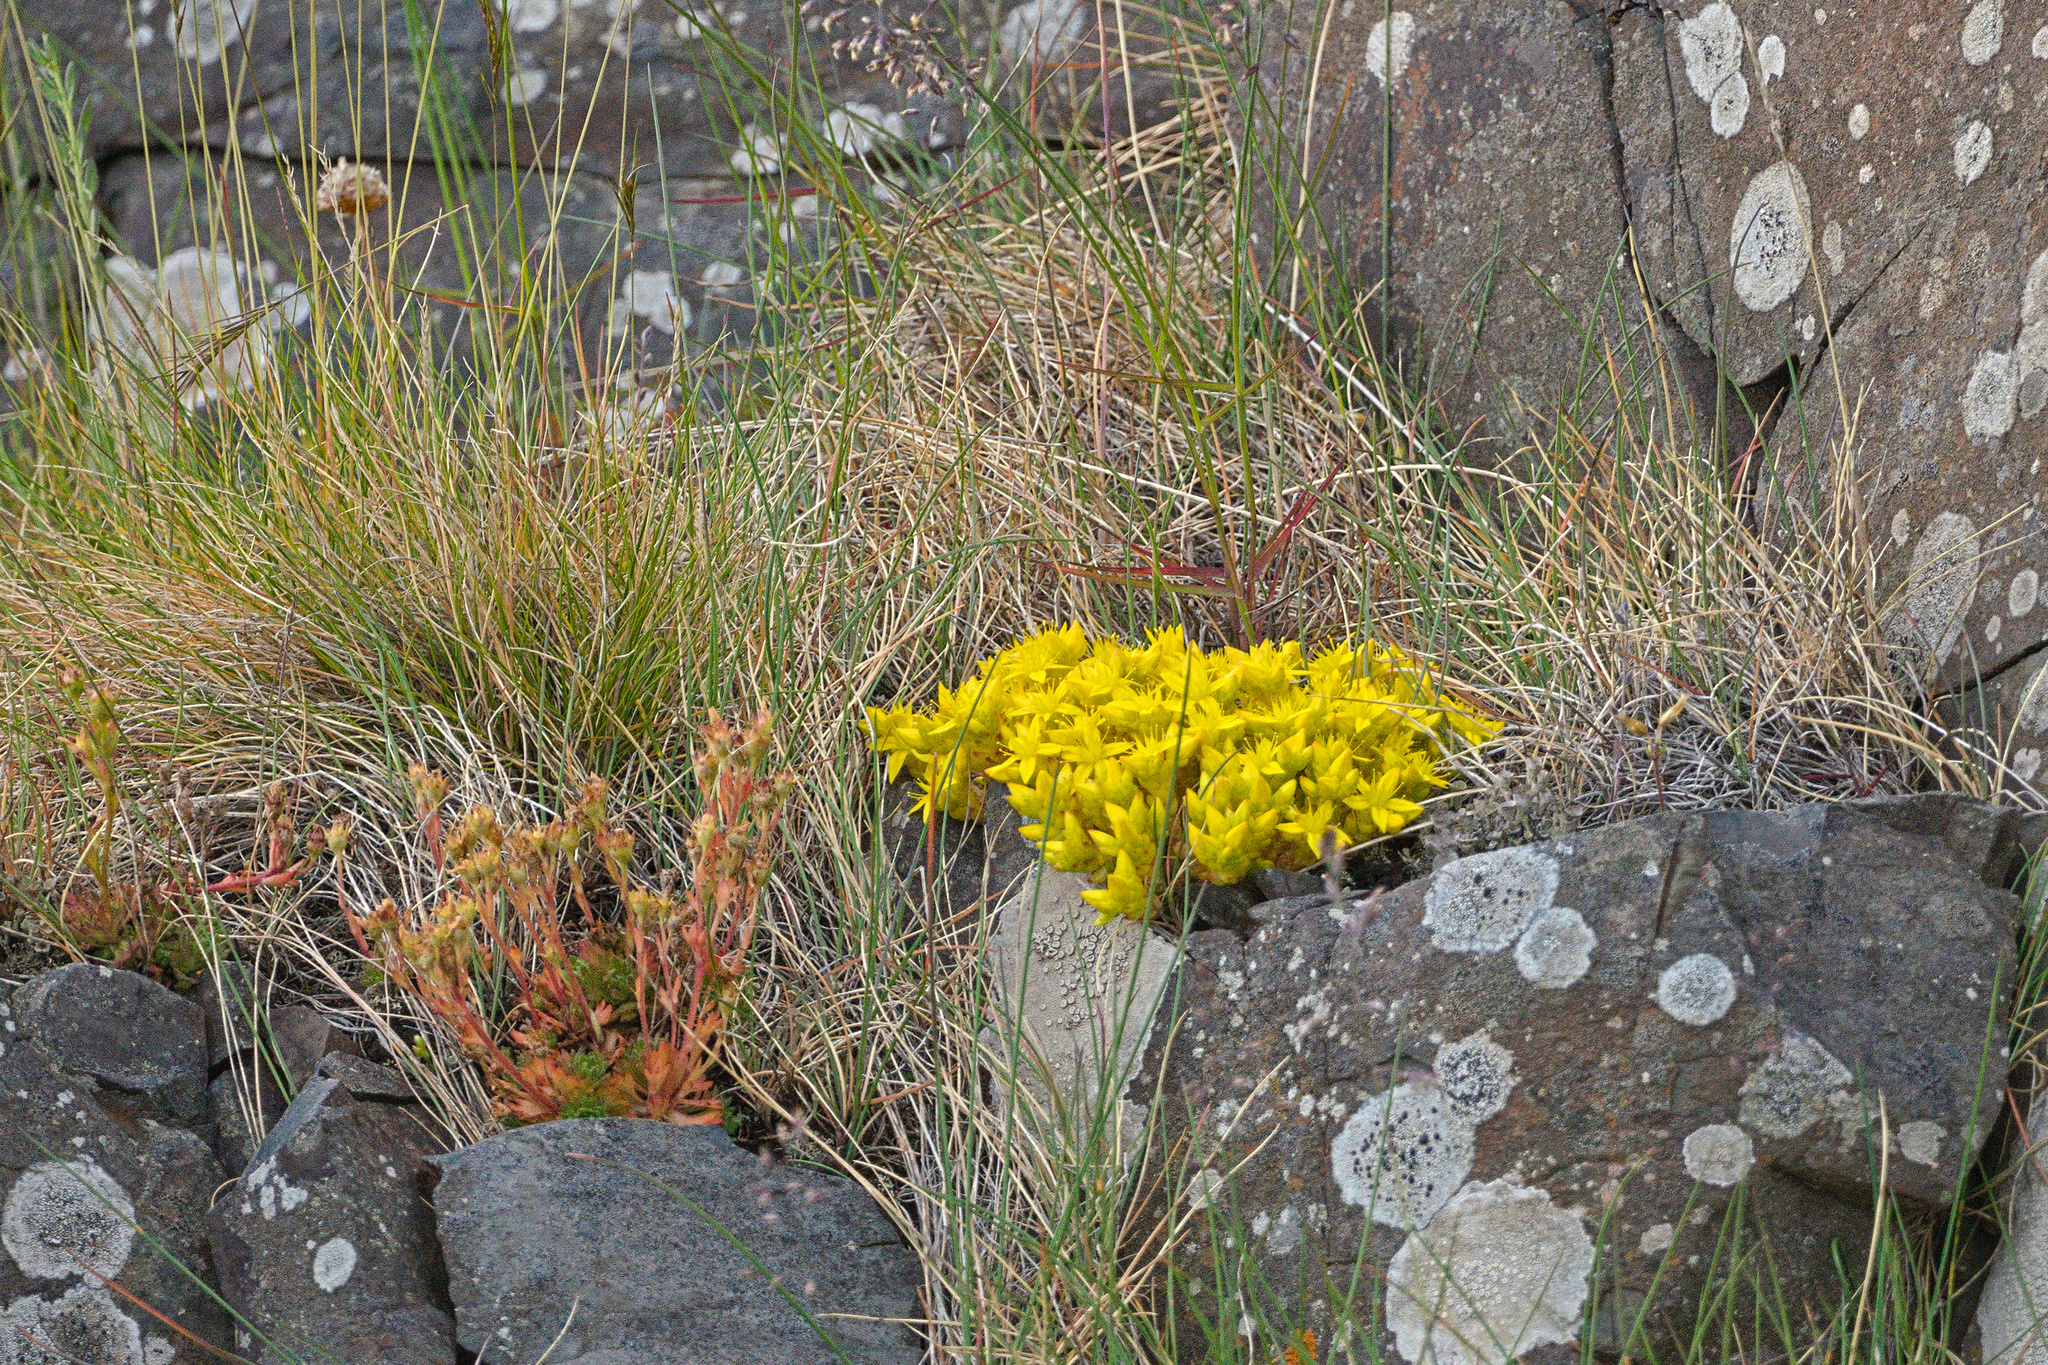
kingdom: Plantae
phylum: Tracheophyta
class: Magnoliopsida
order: Saxifragales
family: Crassulaceae
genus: Sedum
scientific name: Sedum acre
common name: Biting stonecrop
